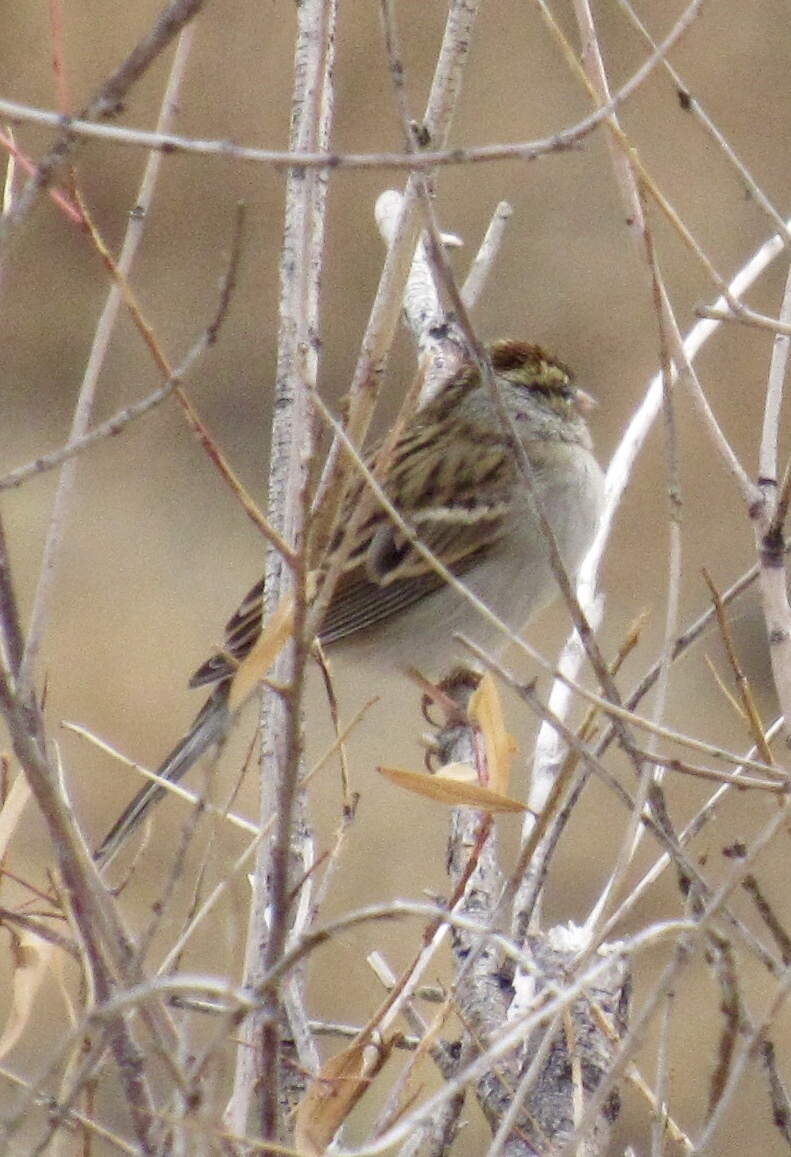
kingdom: Animalia
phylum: Chordata
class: Aves
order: Passeriformes
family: Passerellidae
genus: Spizella
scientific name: Spizella passerina
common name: Chipping sparrow
